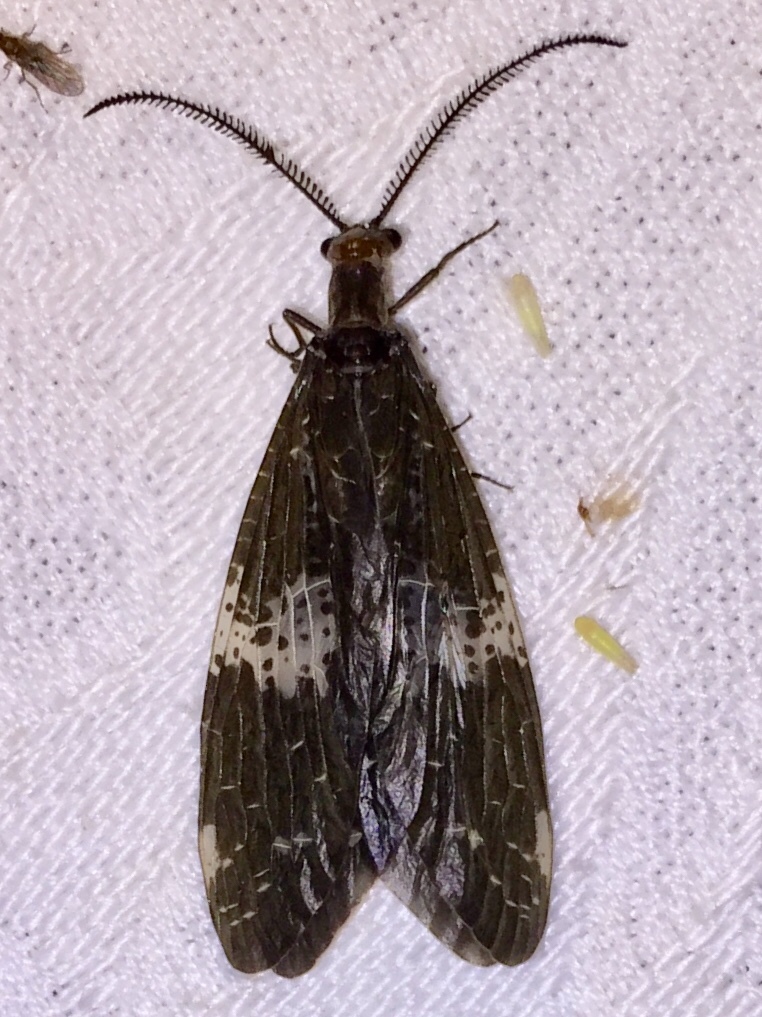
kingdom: Animalia
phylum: Arthropoda
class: Insecta
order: Megaloptera
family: Corydalidae
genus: Nigronia
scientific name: Nigronia fasciata
